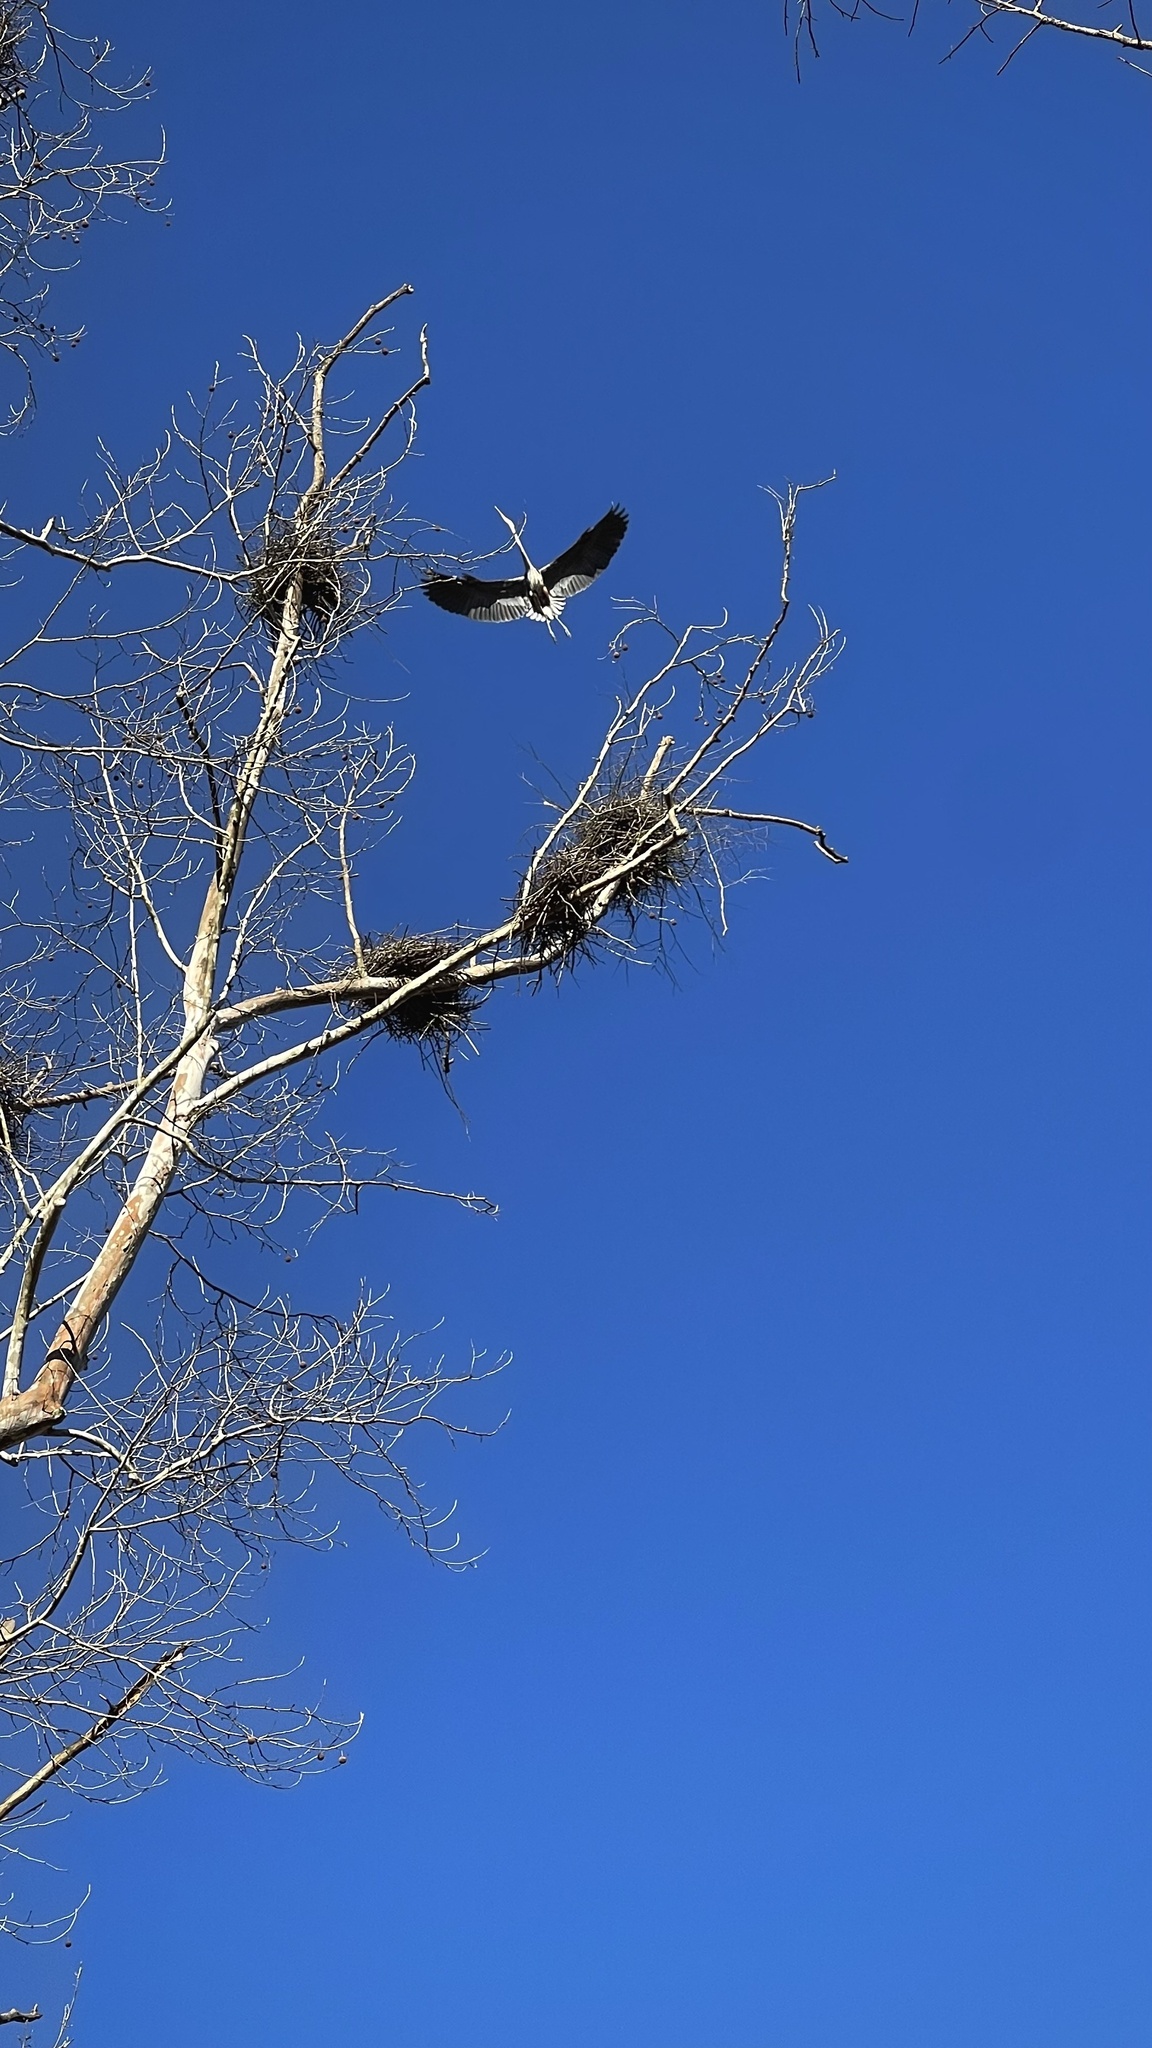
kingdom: Animalia
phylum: Chordata
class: Aves
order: Pelecaniformes
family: Ardeidae
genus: Ardea
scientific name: Ardea herodias
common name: Great blue heron
